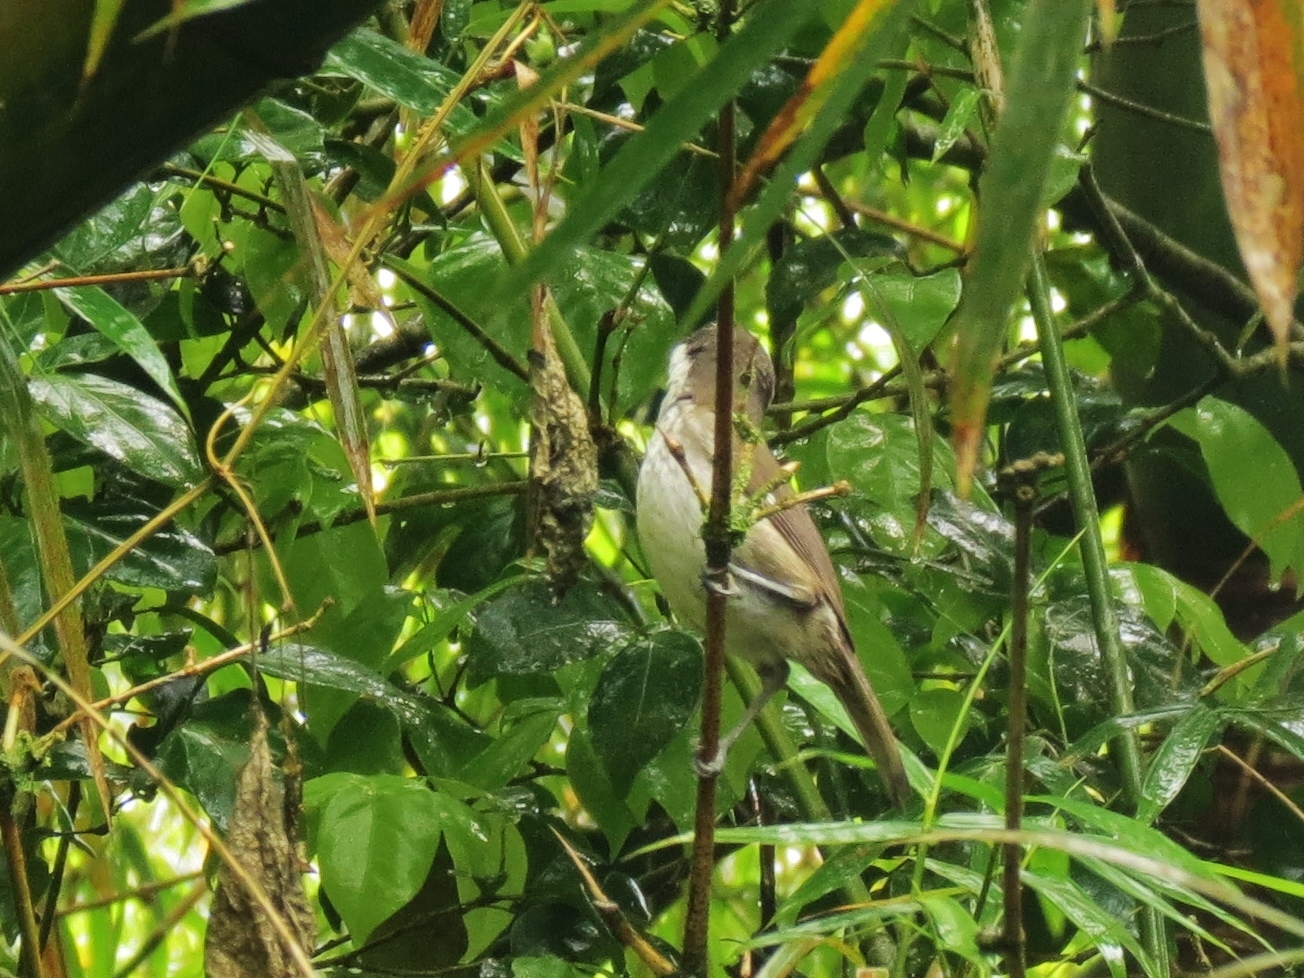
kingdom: Animalia
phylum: Chordata
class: Aves
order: Passeriformes
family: Nesospingidae
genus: Nesospingus
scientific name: Nesospingus speculiferus
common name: Puerto rican tanager
